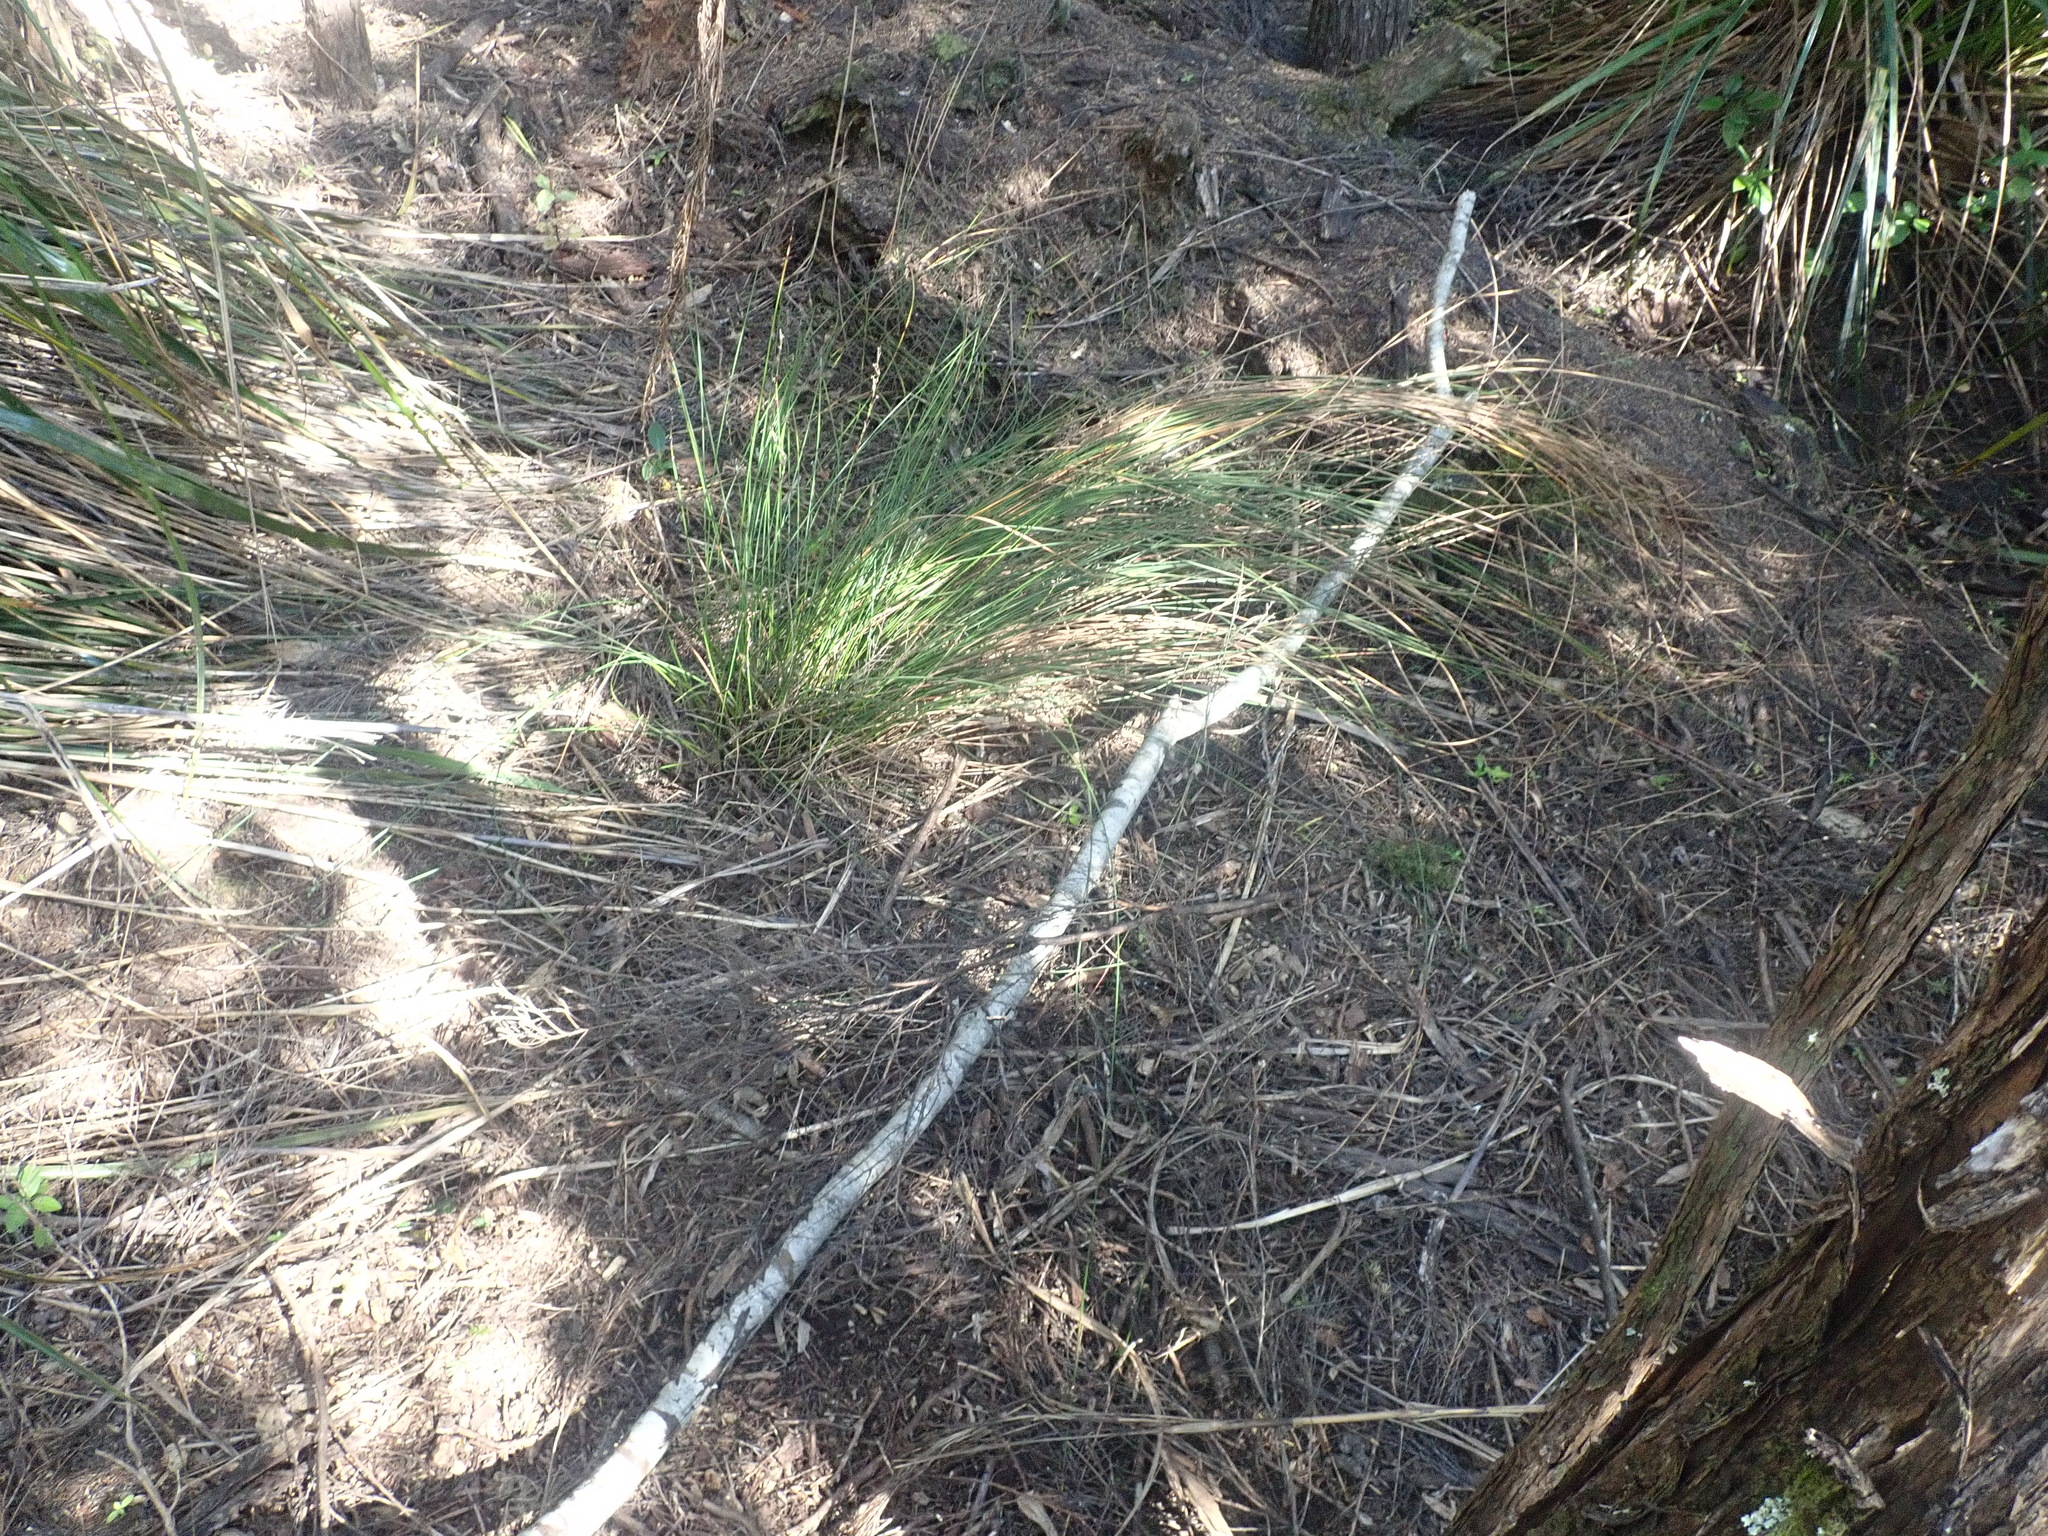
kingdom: Plantae
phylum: Tracheophyta
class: Magnoliopsida
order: Rosales
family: Rosaceae
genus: Prunus
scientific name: Prunus serrulata
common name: Japanese cherry
